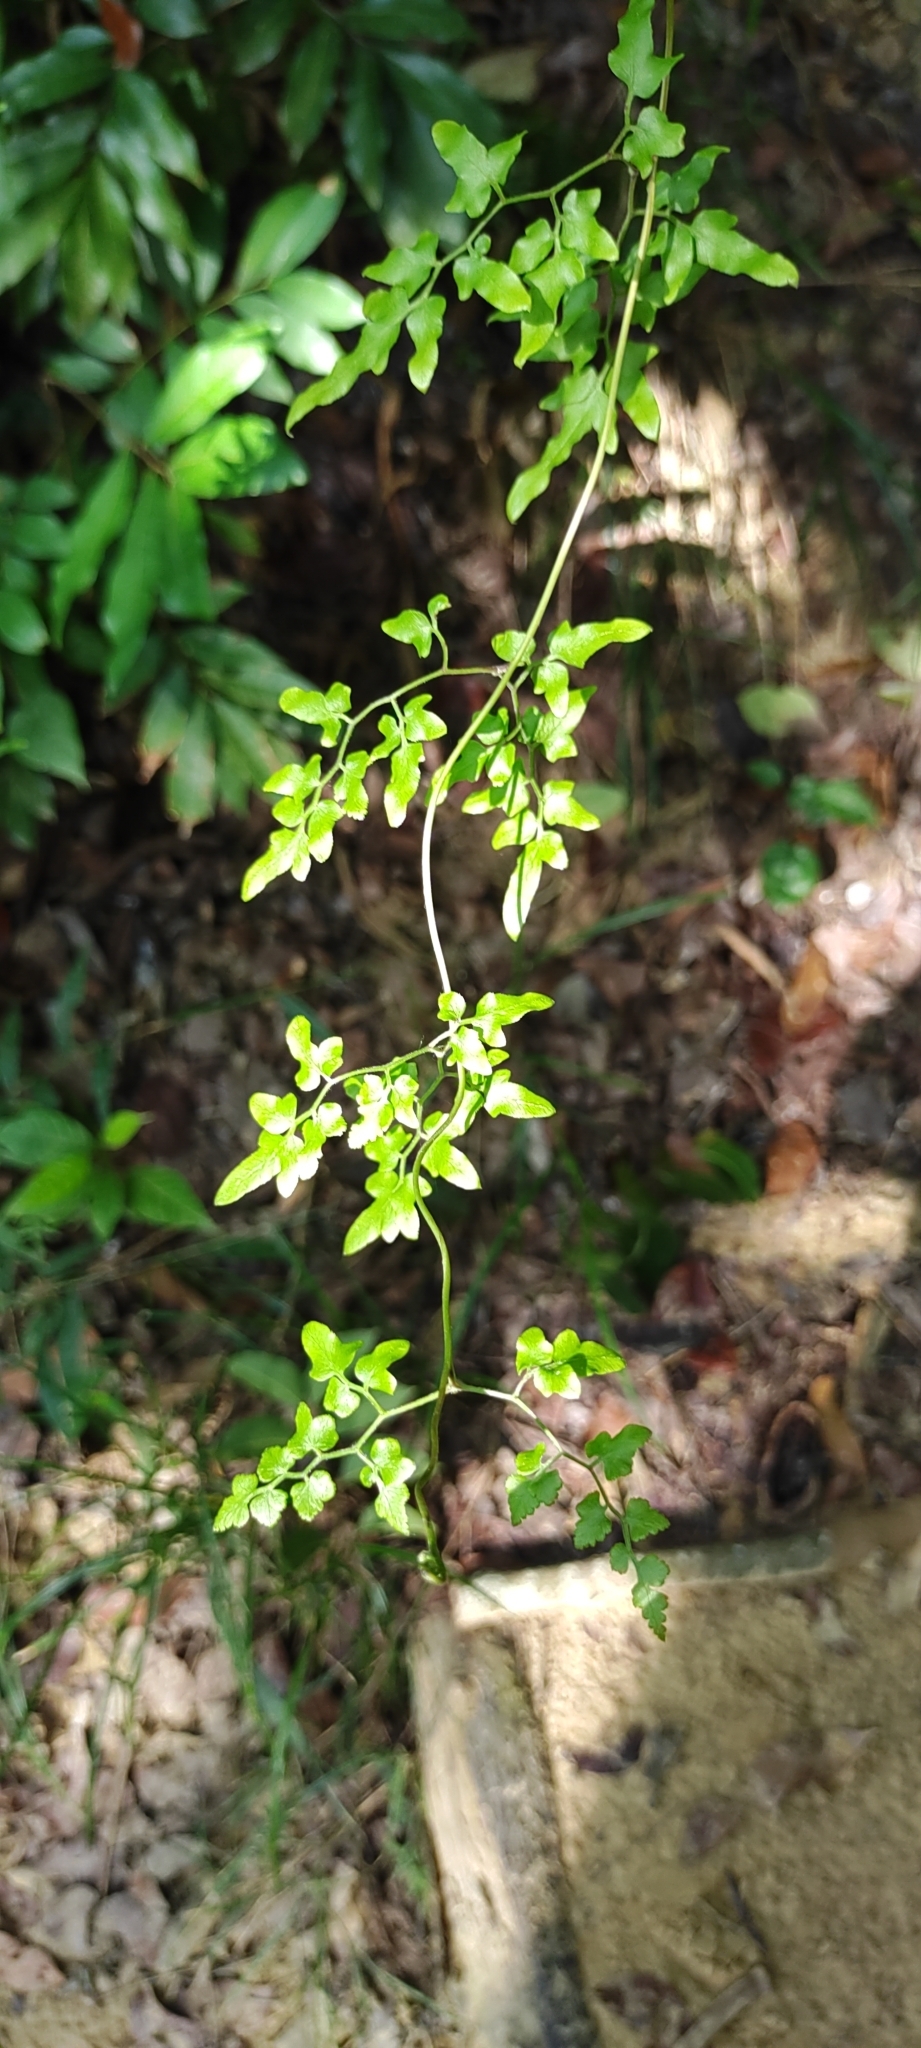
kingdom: Plantae
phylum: Tracheophyta
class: Polypodiopsida
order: Schizaeales
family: Lygodiaceae
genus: Lygodium
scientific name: Lygodium japonicum
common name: Japanese climbing fern
